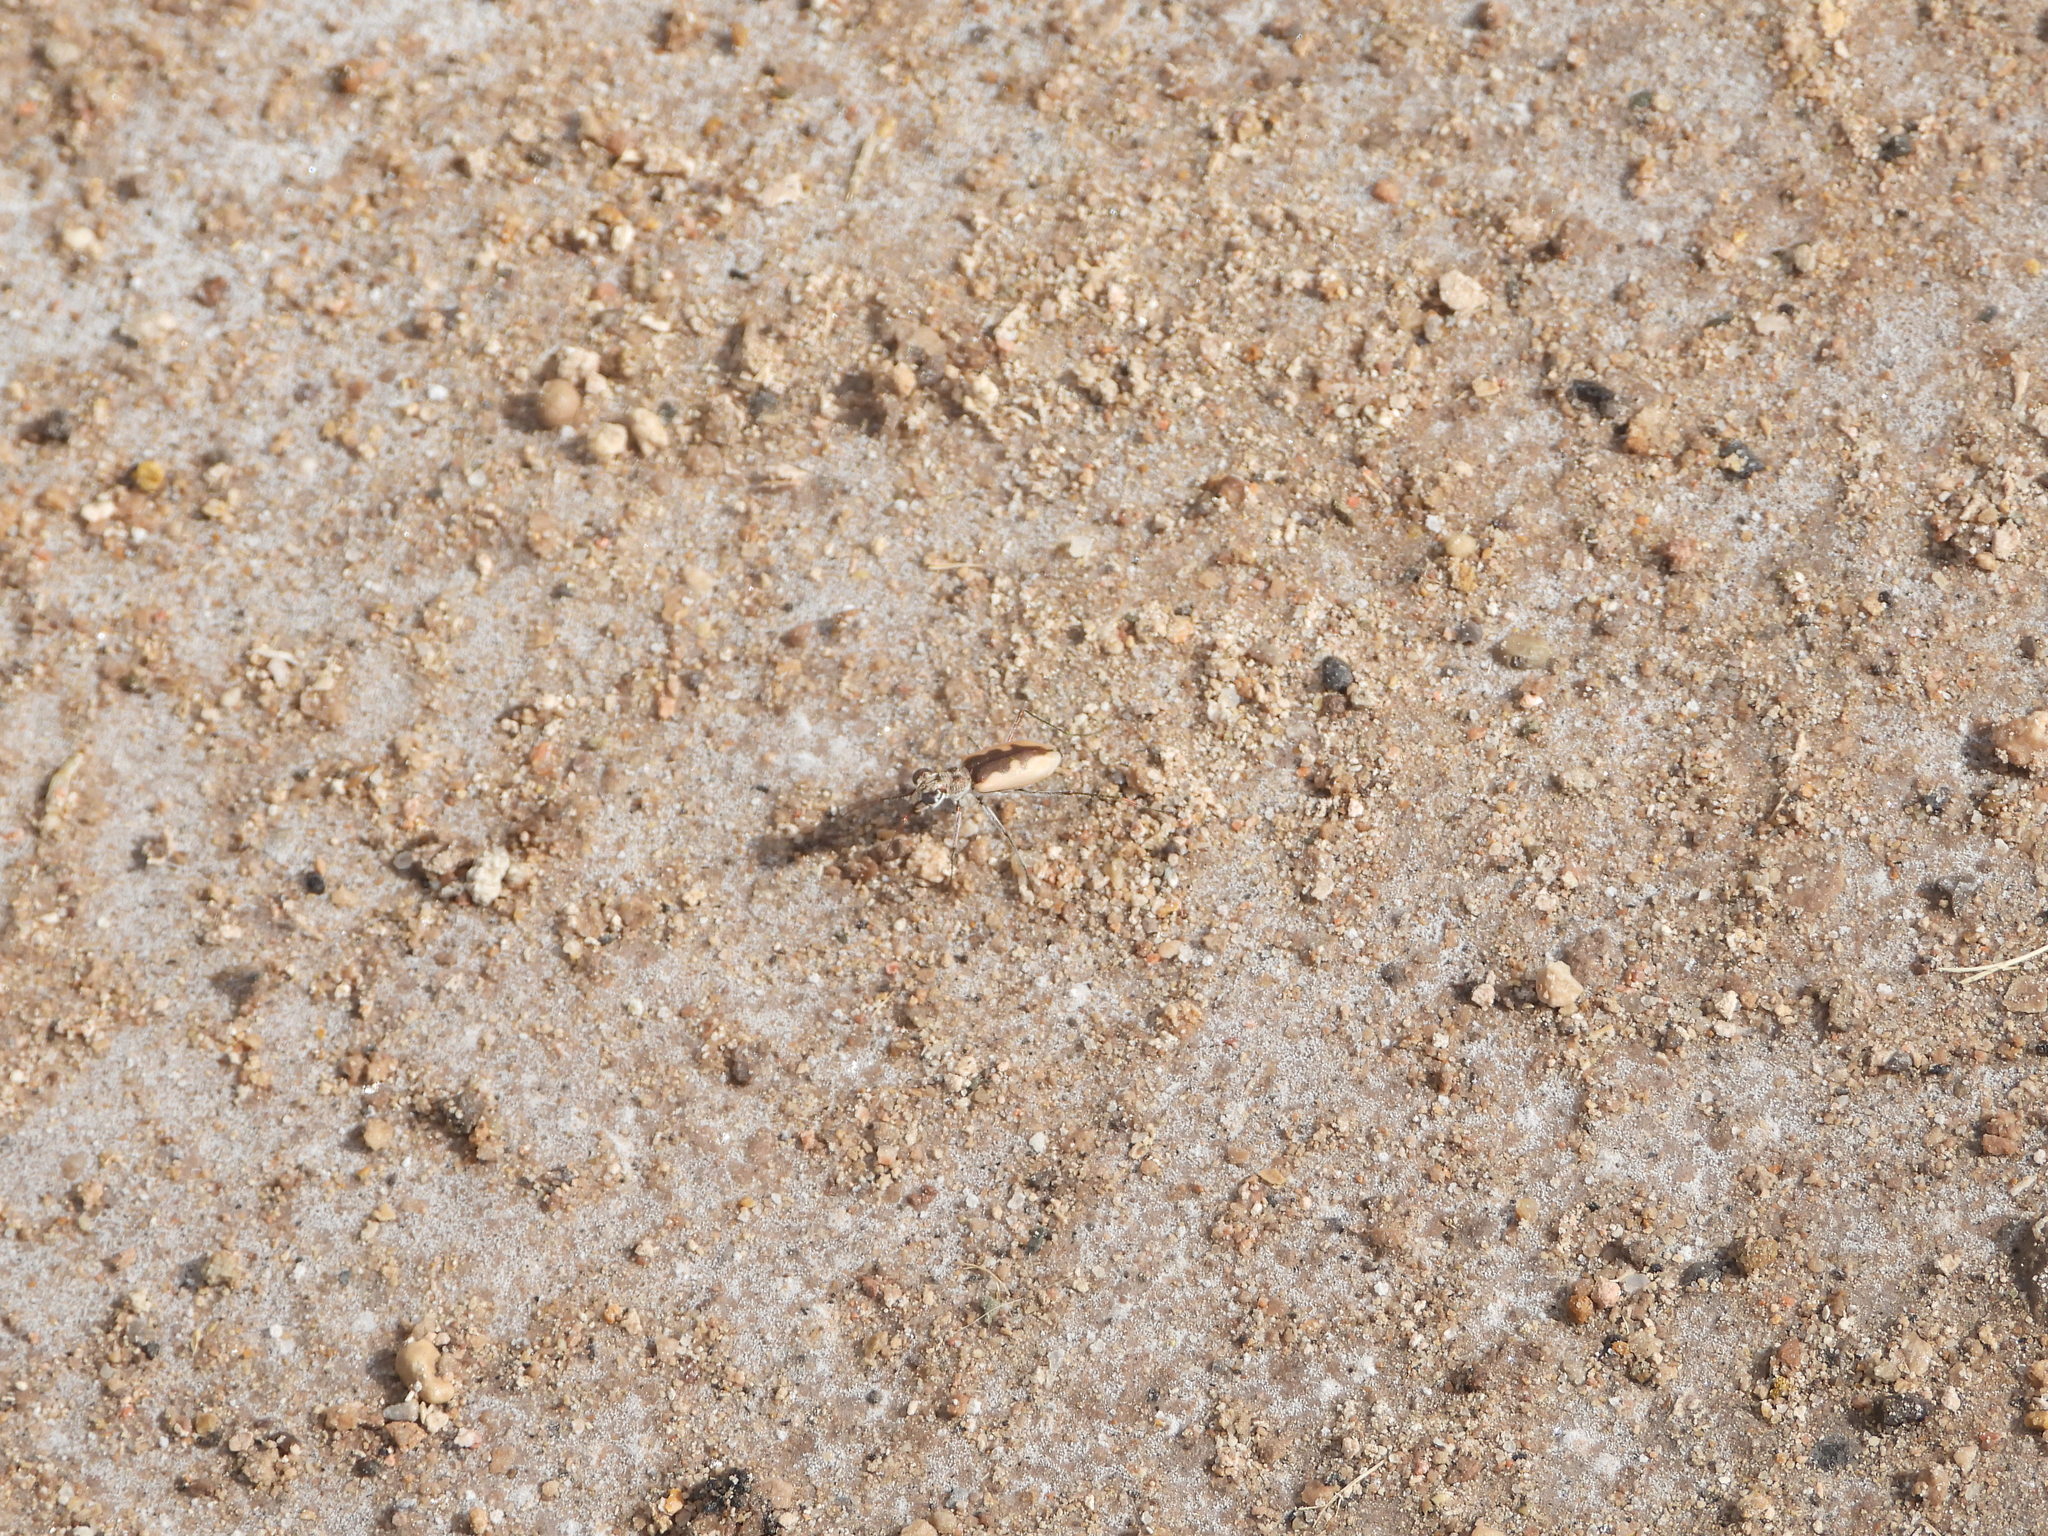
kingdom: Animalia
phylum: Arthropoda
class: Insecta
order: Coleoptera
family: Carabidae
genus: Eunota
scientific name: Eunota togata
